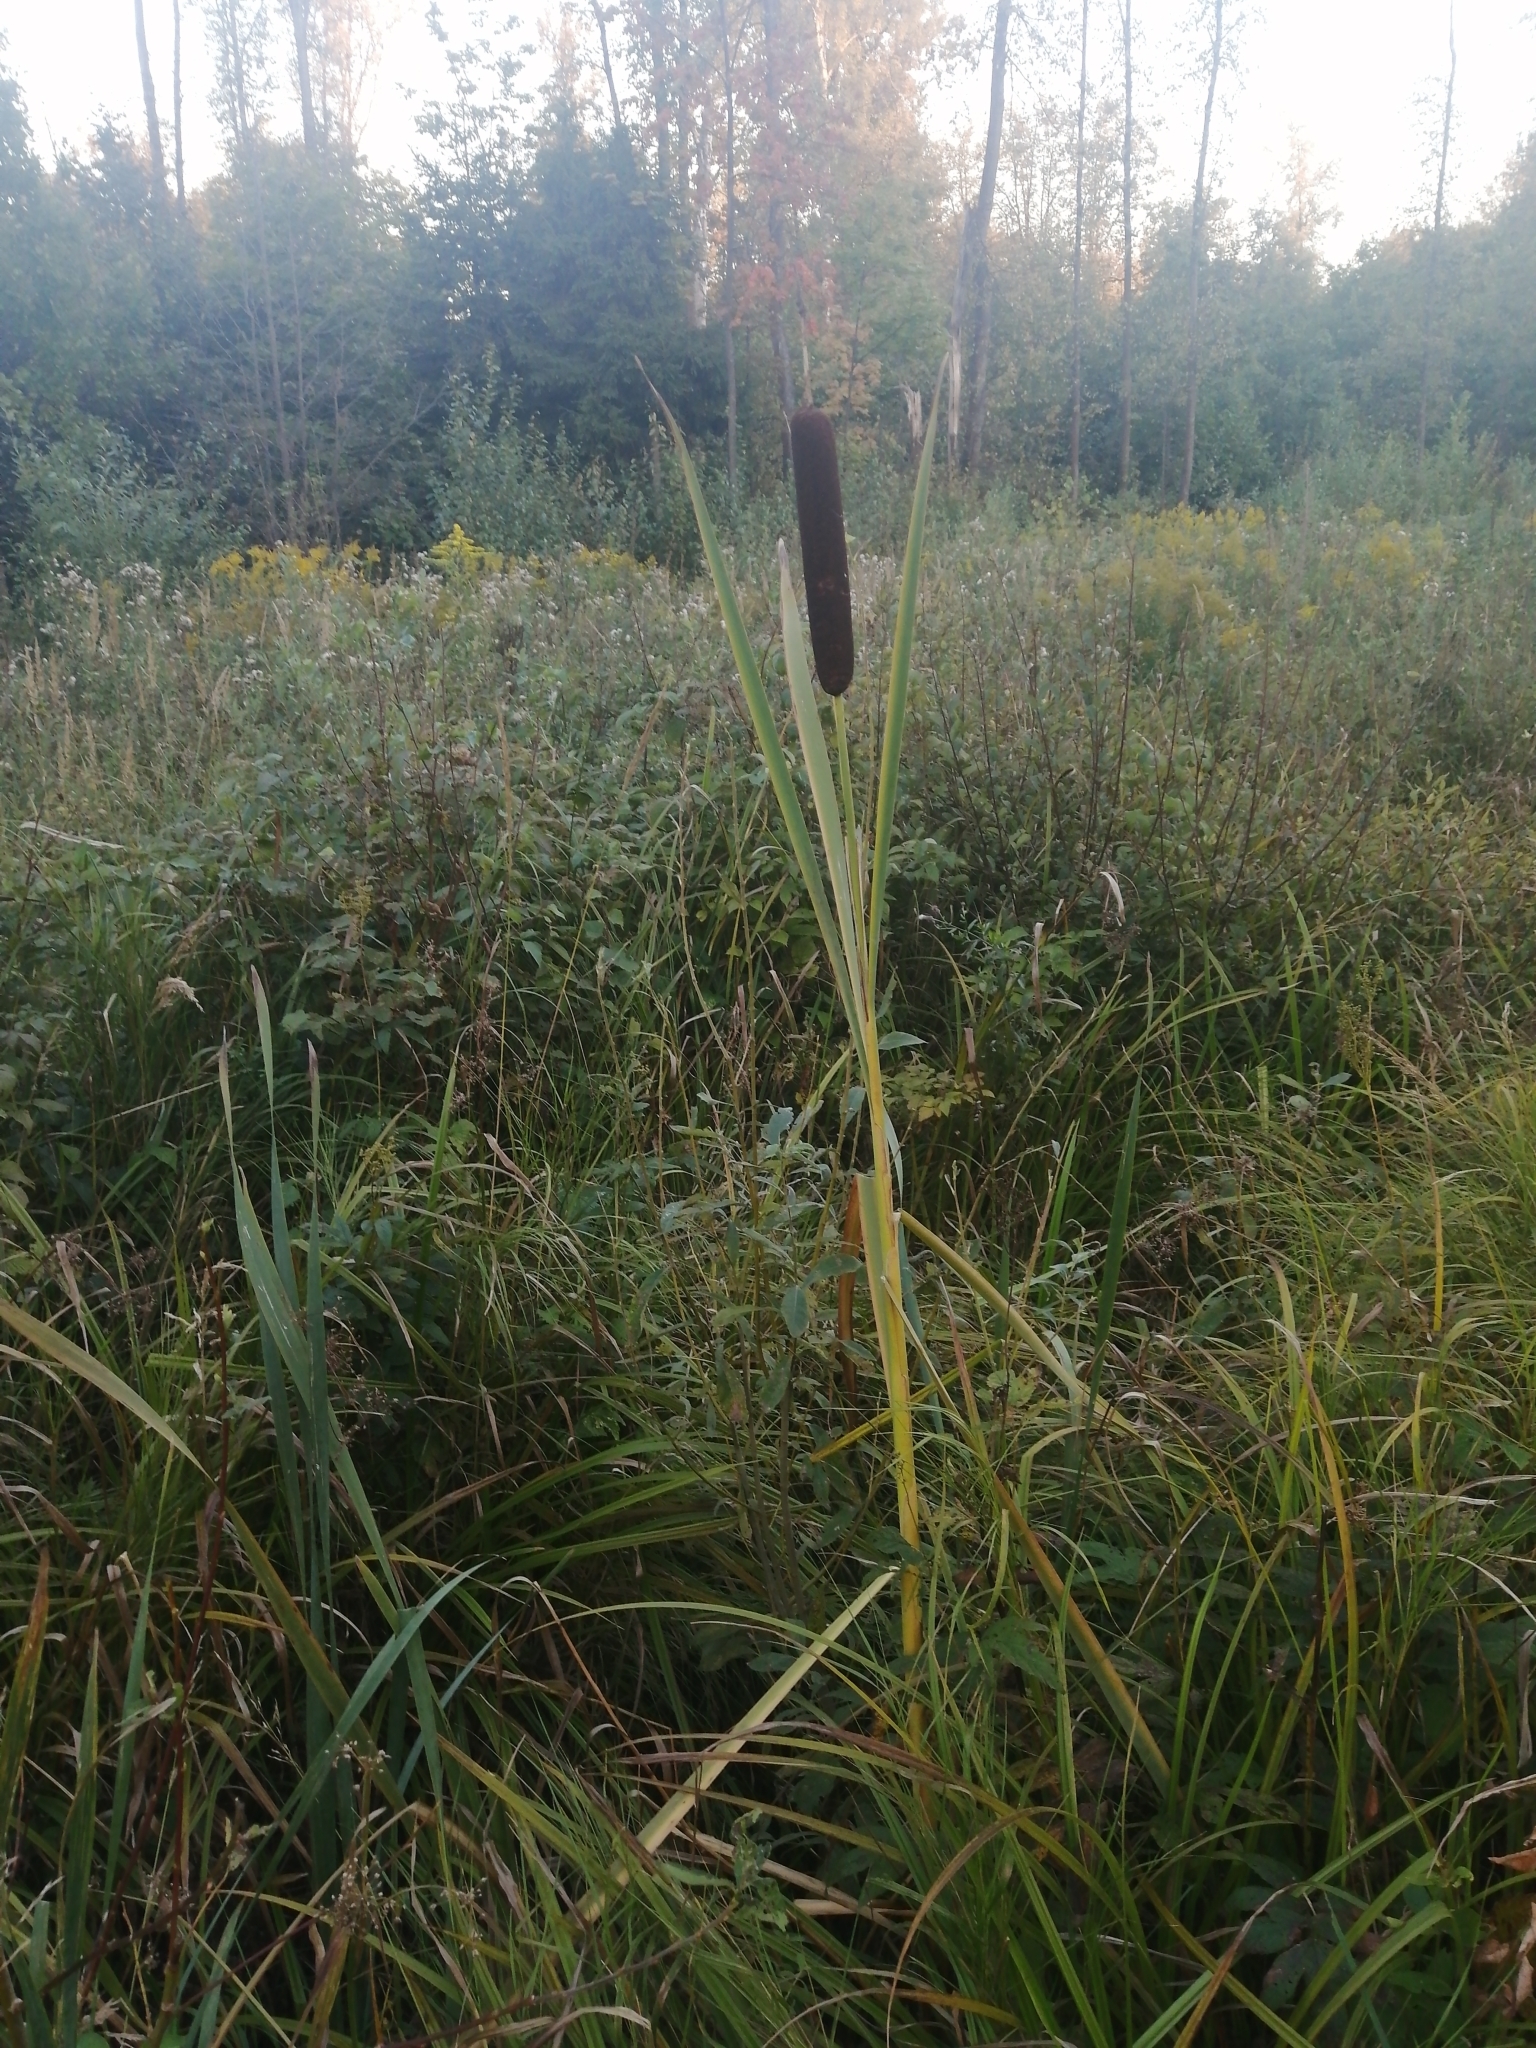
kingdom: Plantae
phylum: Tracheophyta
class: Liliopsida
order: Poales
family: Typhaceae
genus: Typha
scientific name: Typha latifolia
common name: Broadleaf cattail
